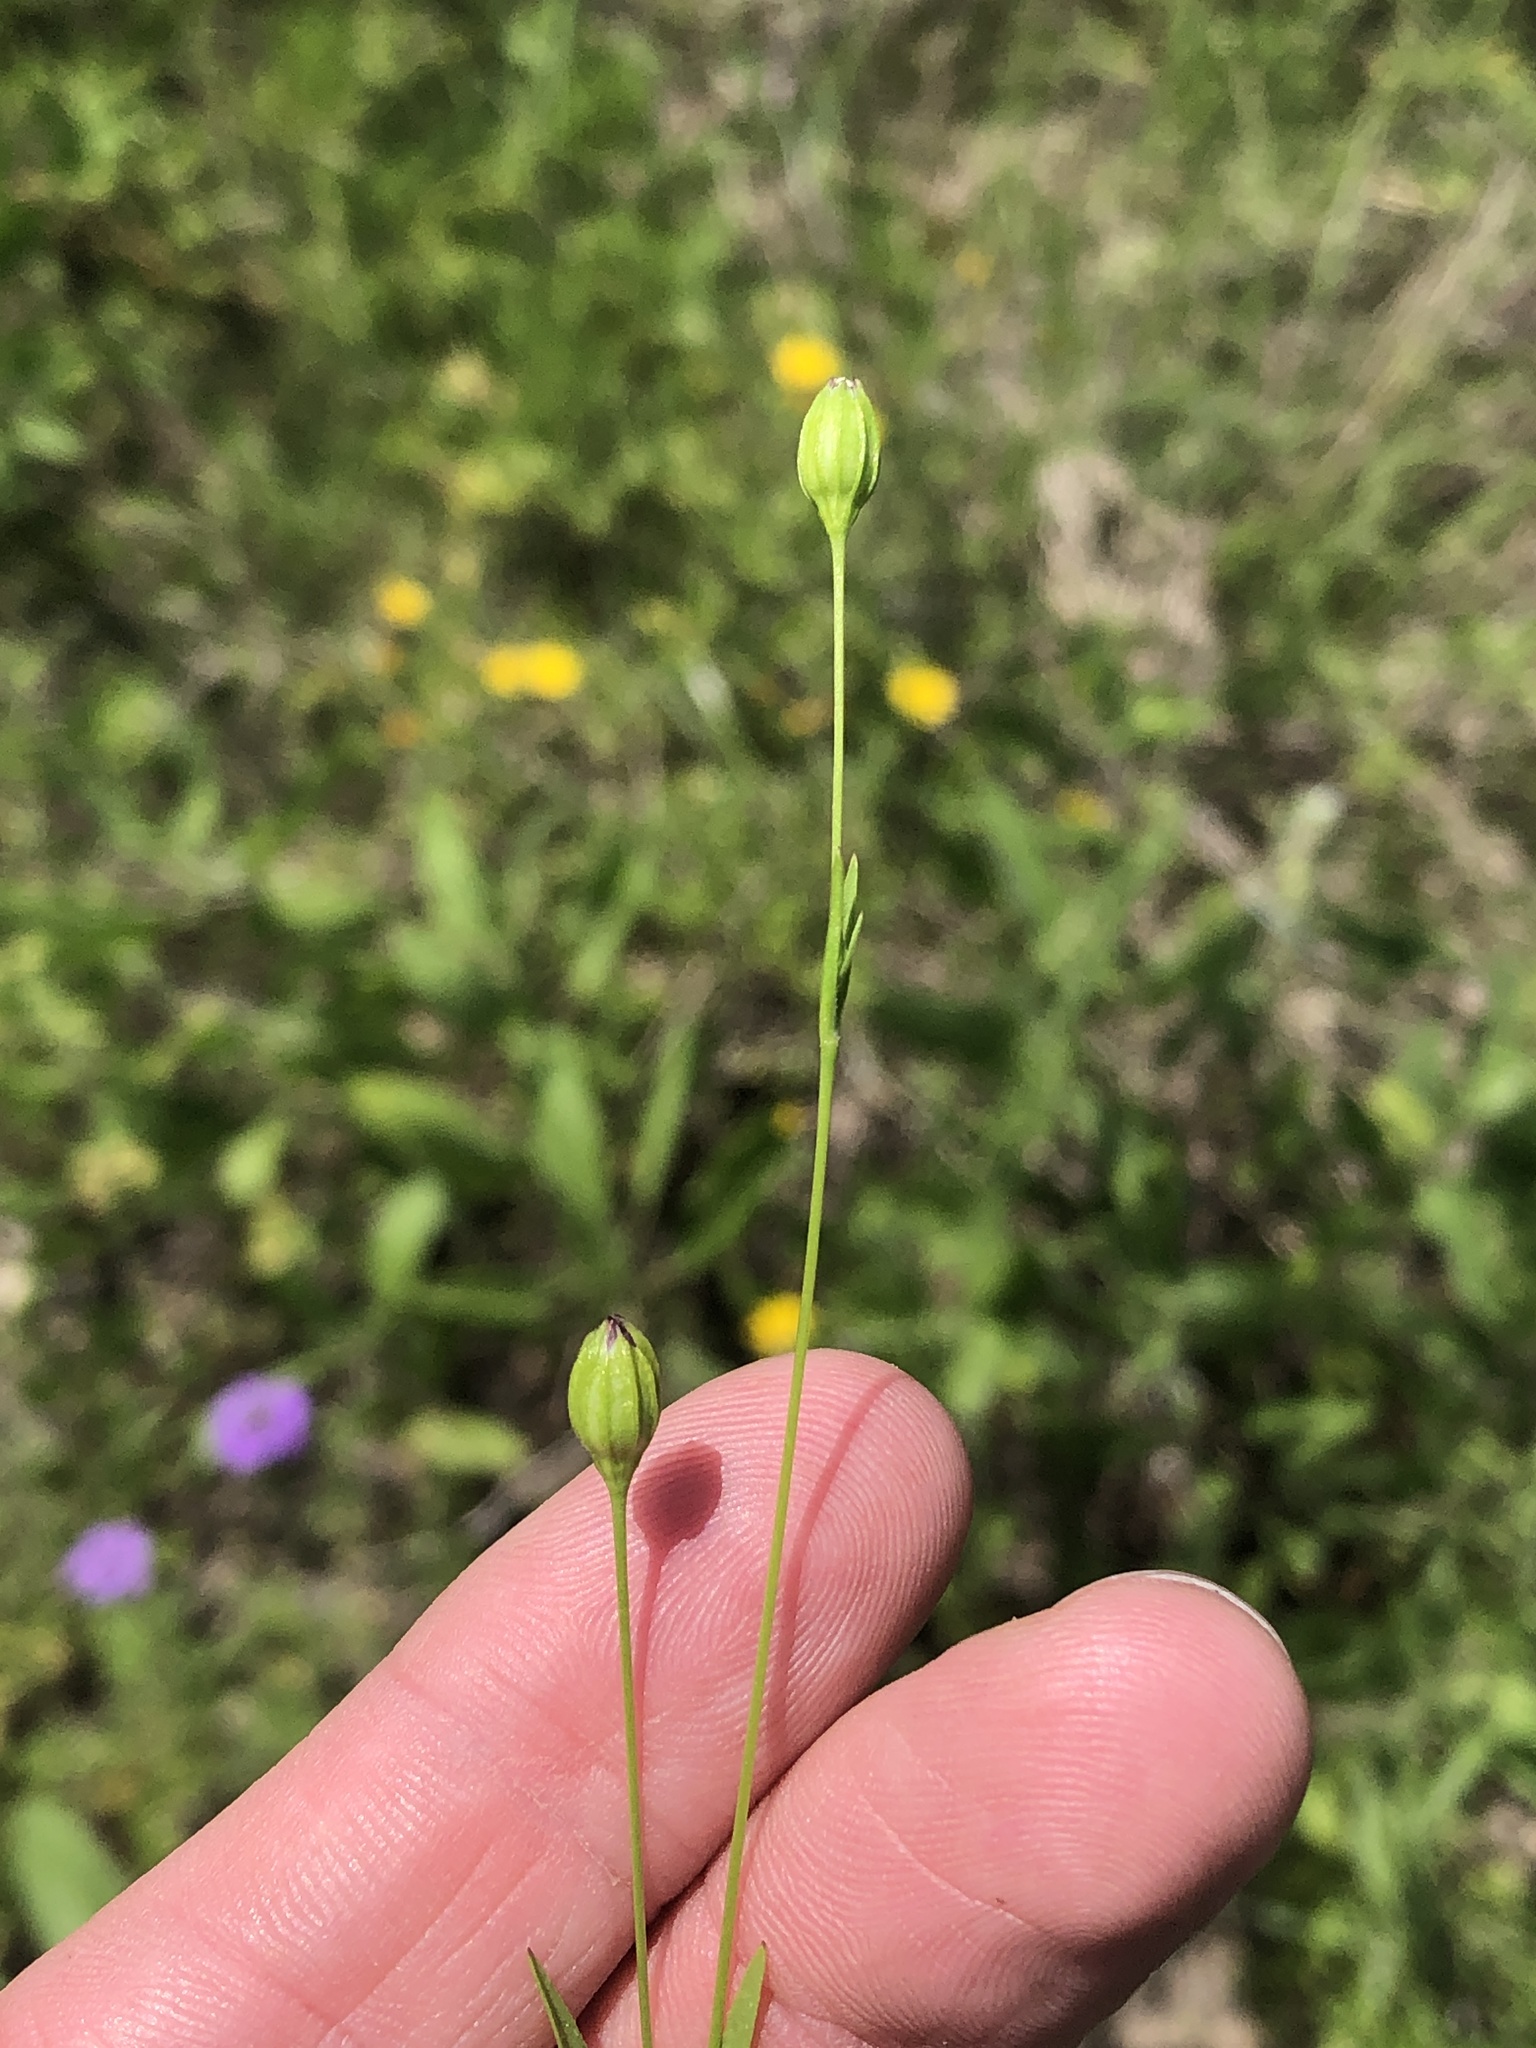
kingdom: Plantae
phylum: Tracheophyta
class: Magnoliopsida
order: Caryophyllales
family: Caryophyllaceae
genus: Silene
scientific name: Silene antirrhina
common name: Sleepy catchfly
